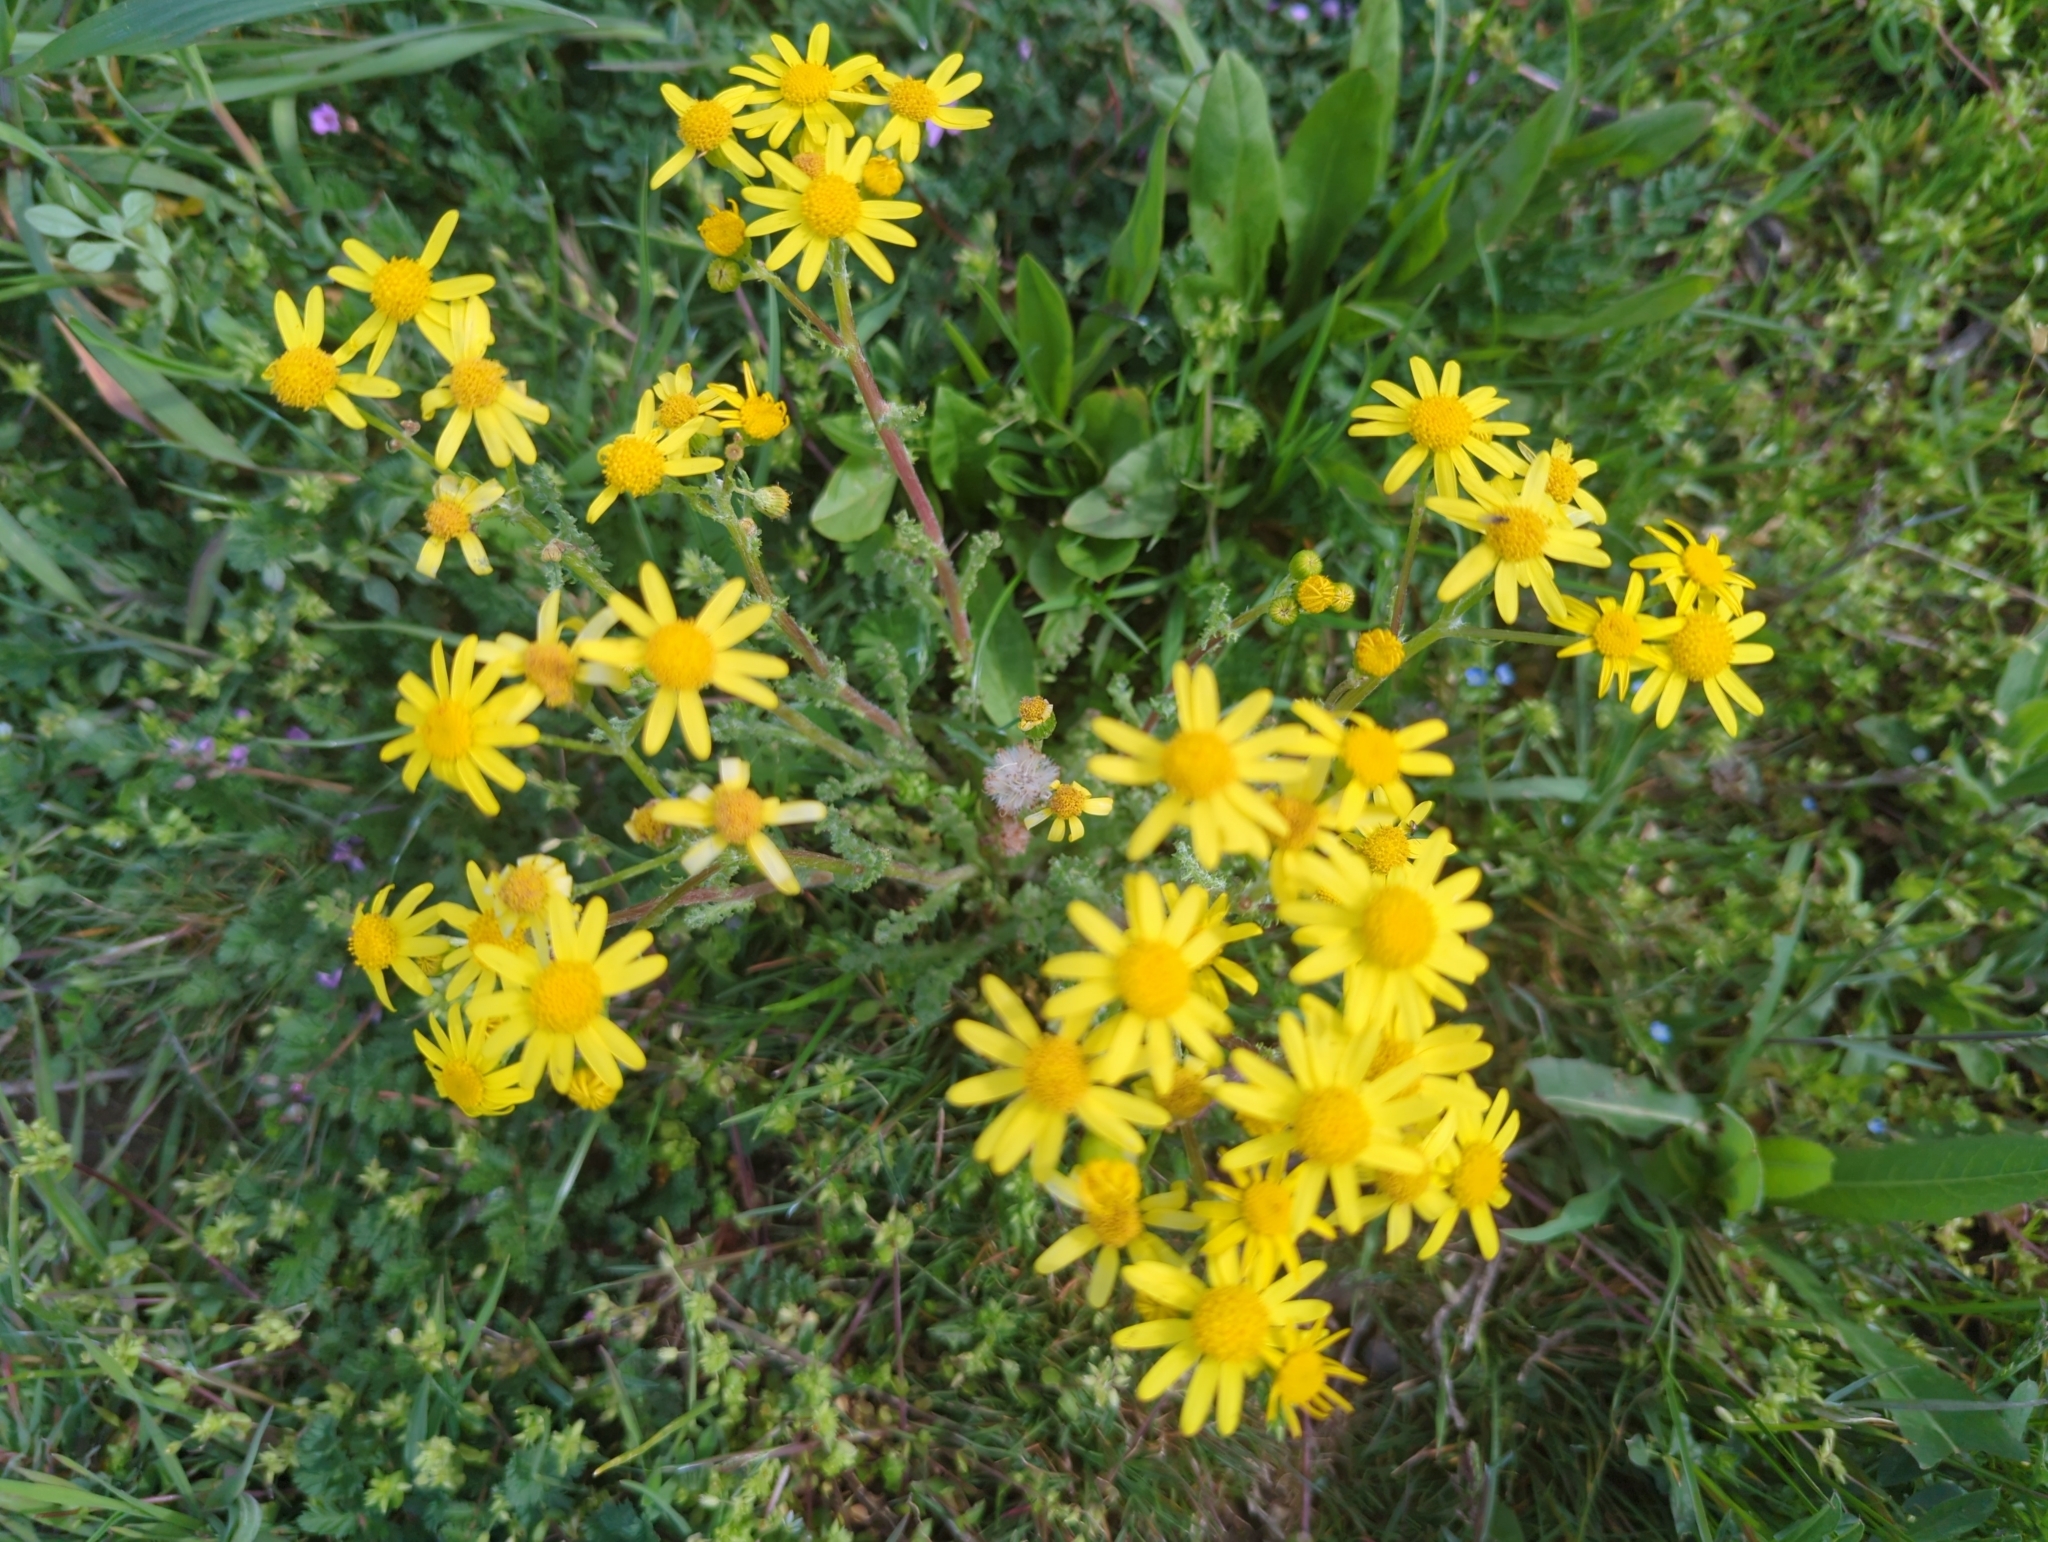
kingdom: Plantae
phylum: Tracheophyta
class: Magnoliopsida
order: Asterales
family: Asteraceae
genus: Senecio
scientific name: Senecio vernalis
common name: Eastern groundsel
